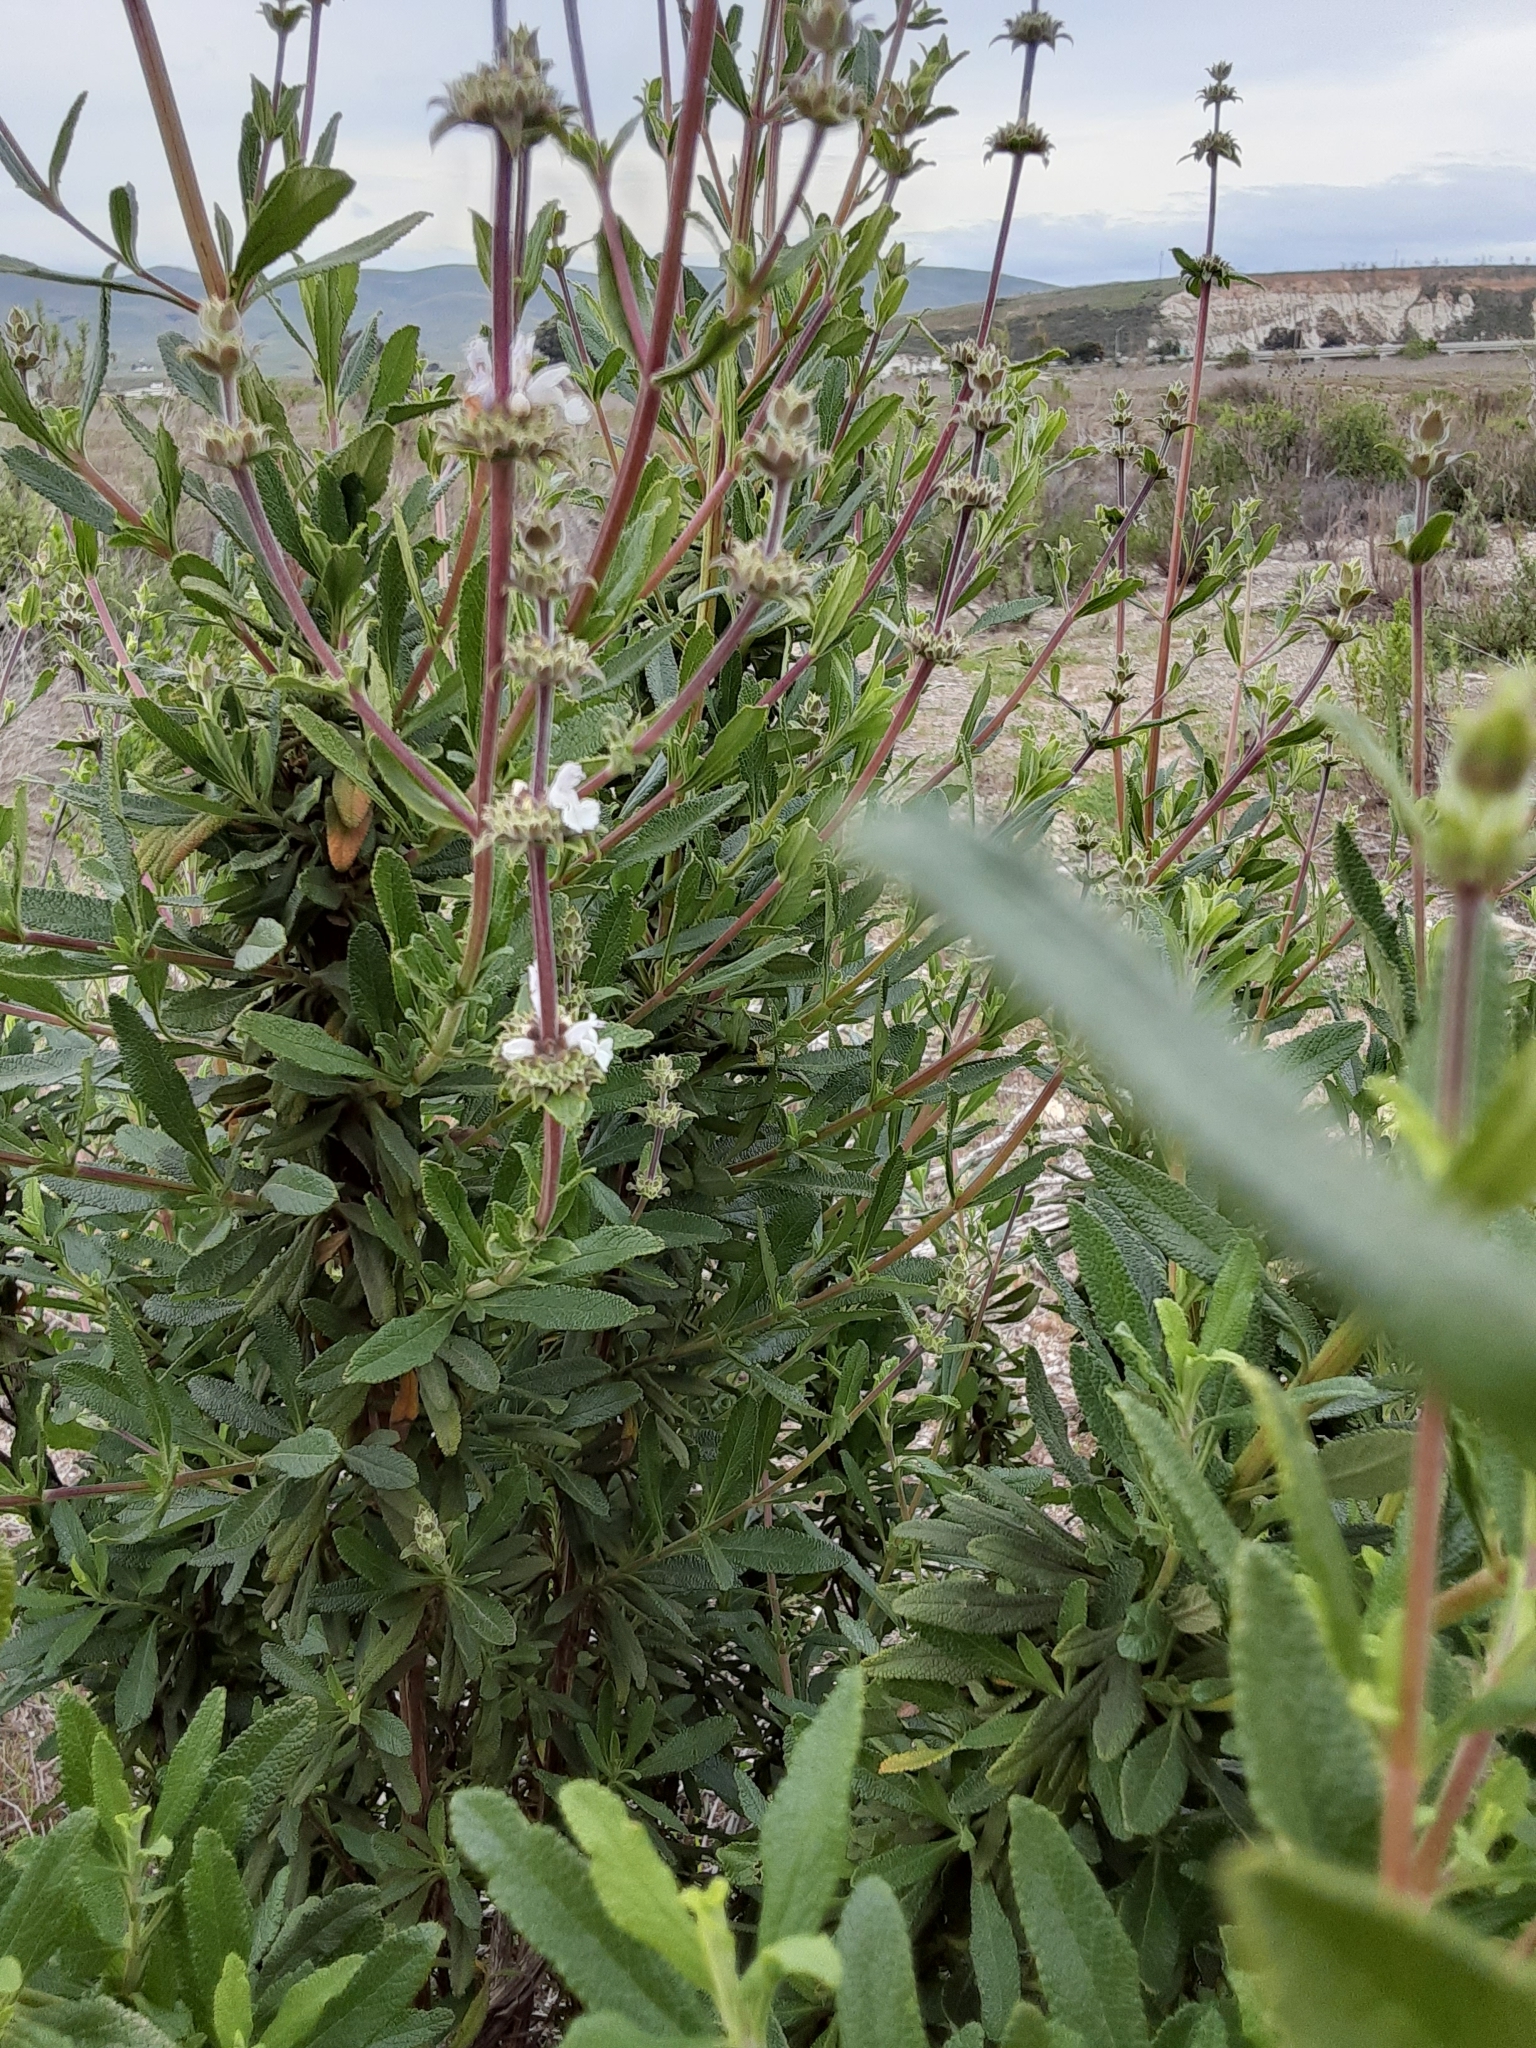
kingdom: Plantae
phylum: Tracheophyta
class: Magnoliopsida
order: Lamiales
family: Lamiaceae
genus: Salvia
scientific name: Salvia mellifera
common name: Black sage
